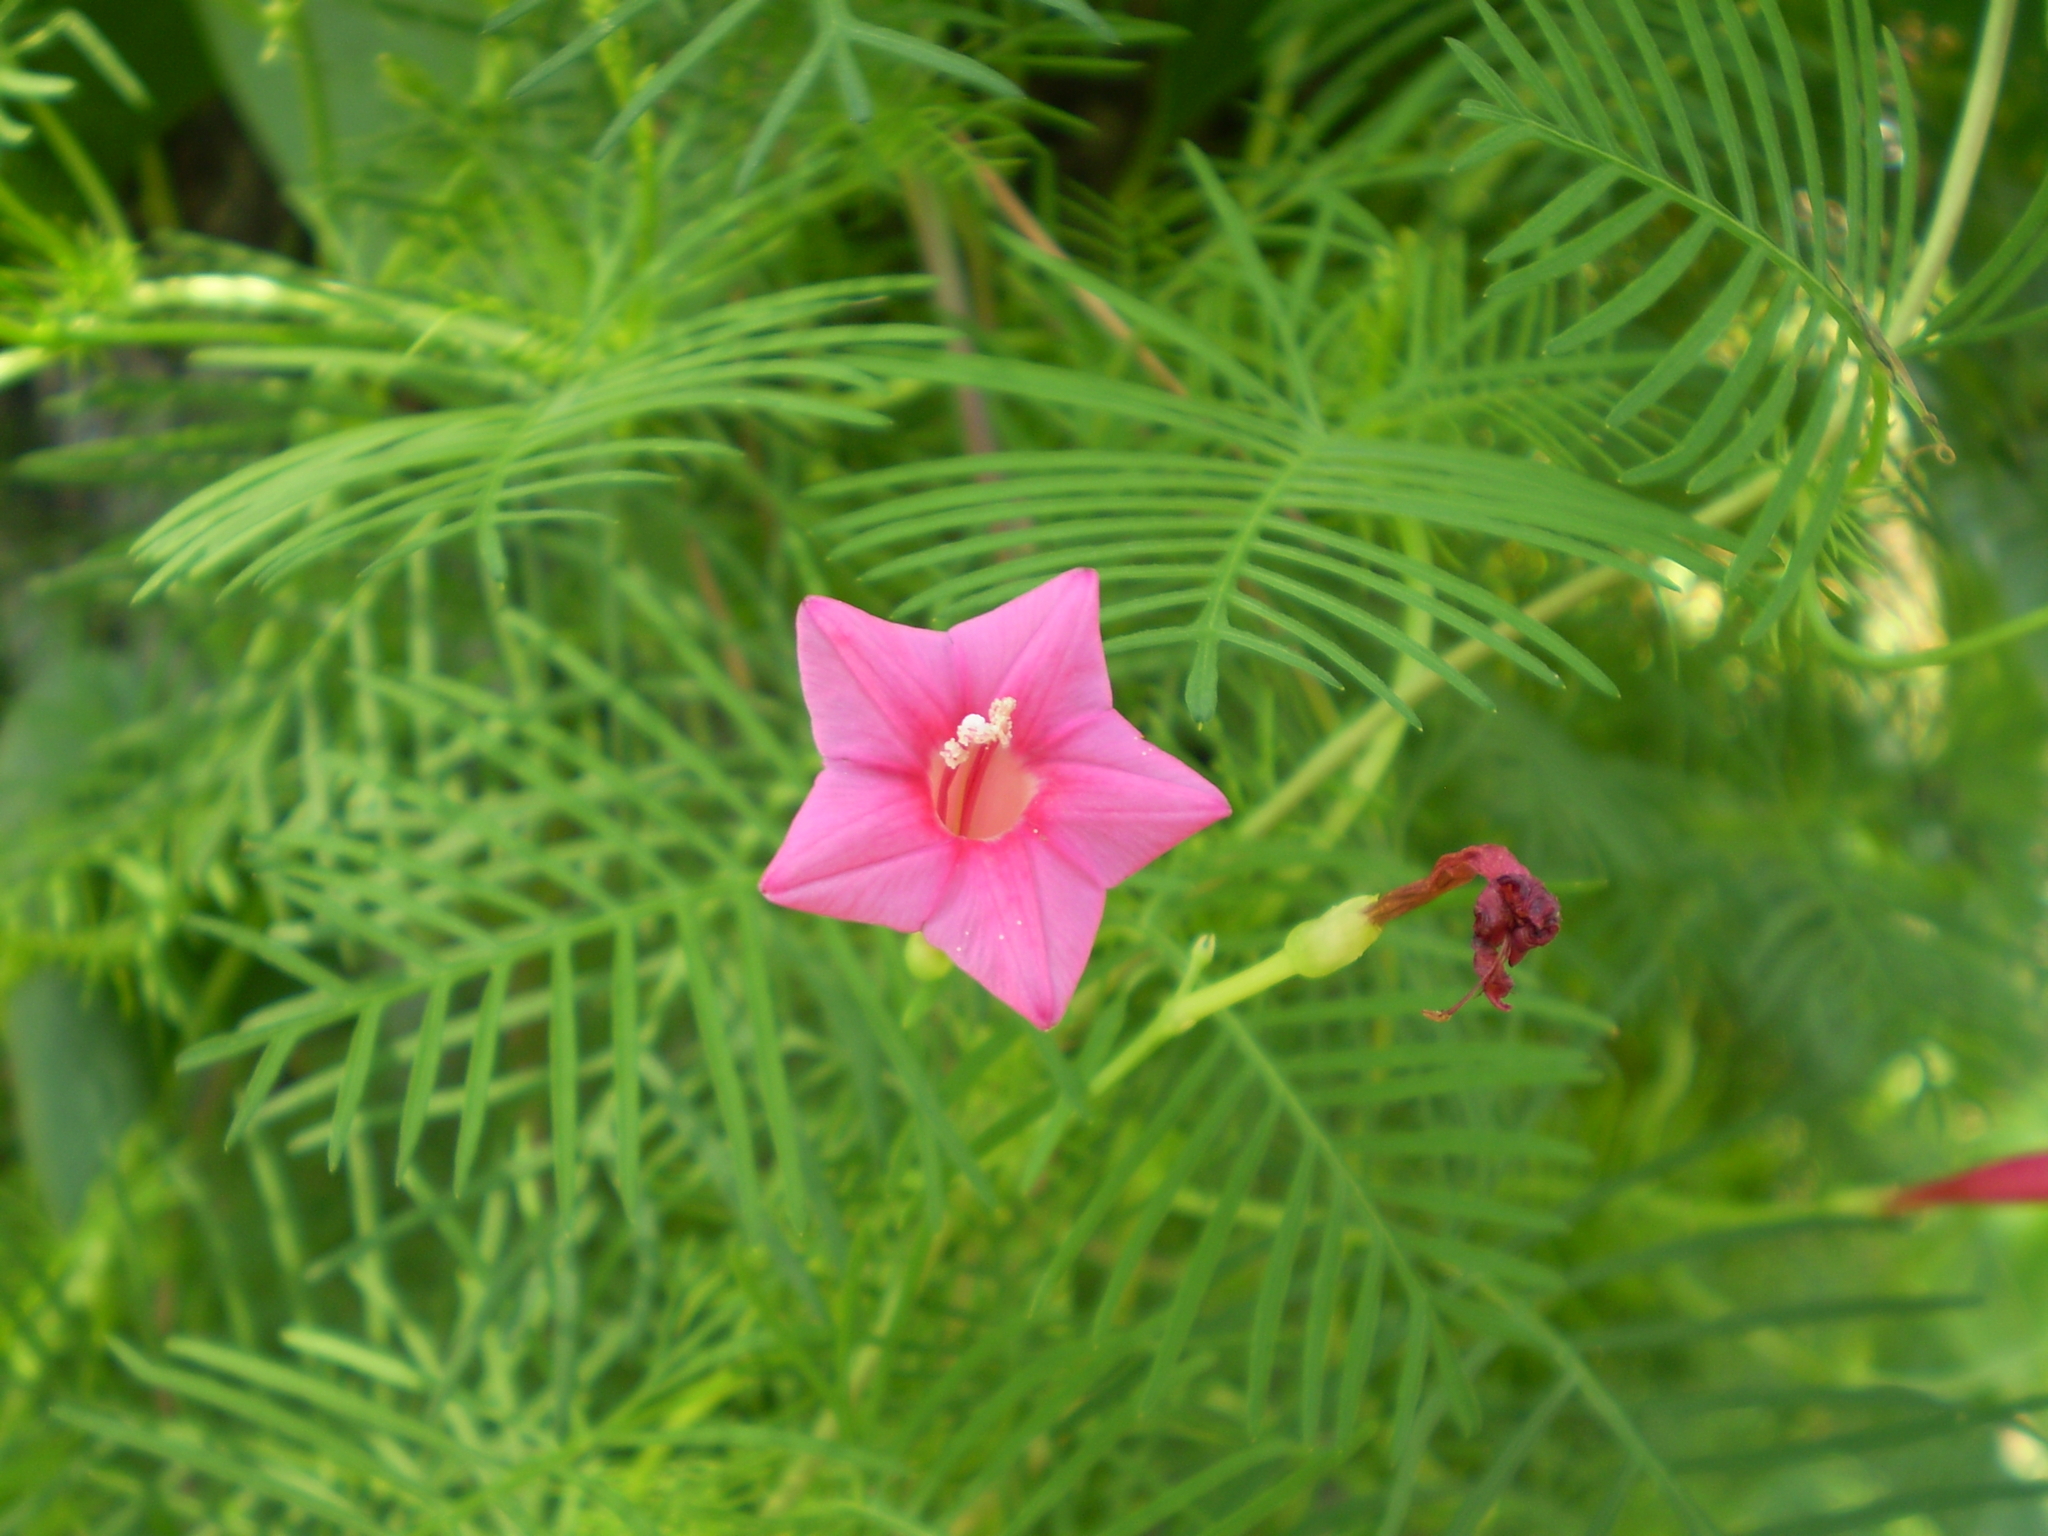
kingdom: Plantae
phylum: Tracheophyta
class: Magnoliopsida
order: Solanales
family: Convolvulaceae
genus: Ipomoea
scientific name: Ipomoea quamoclit
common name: Cypress vine
